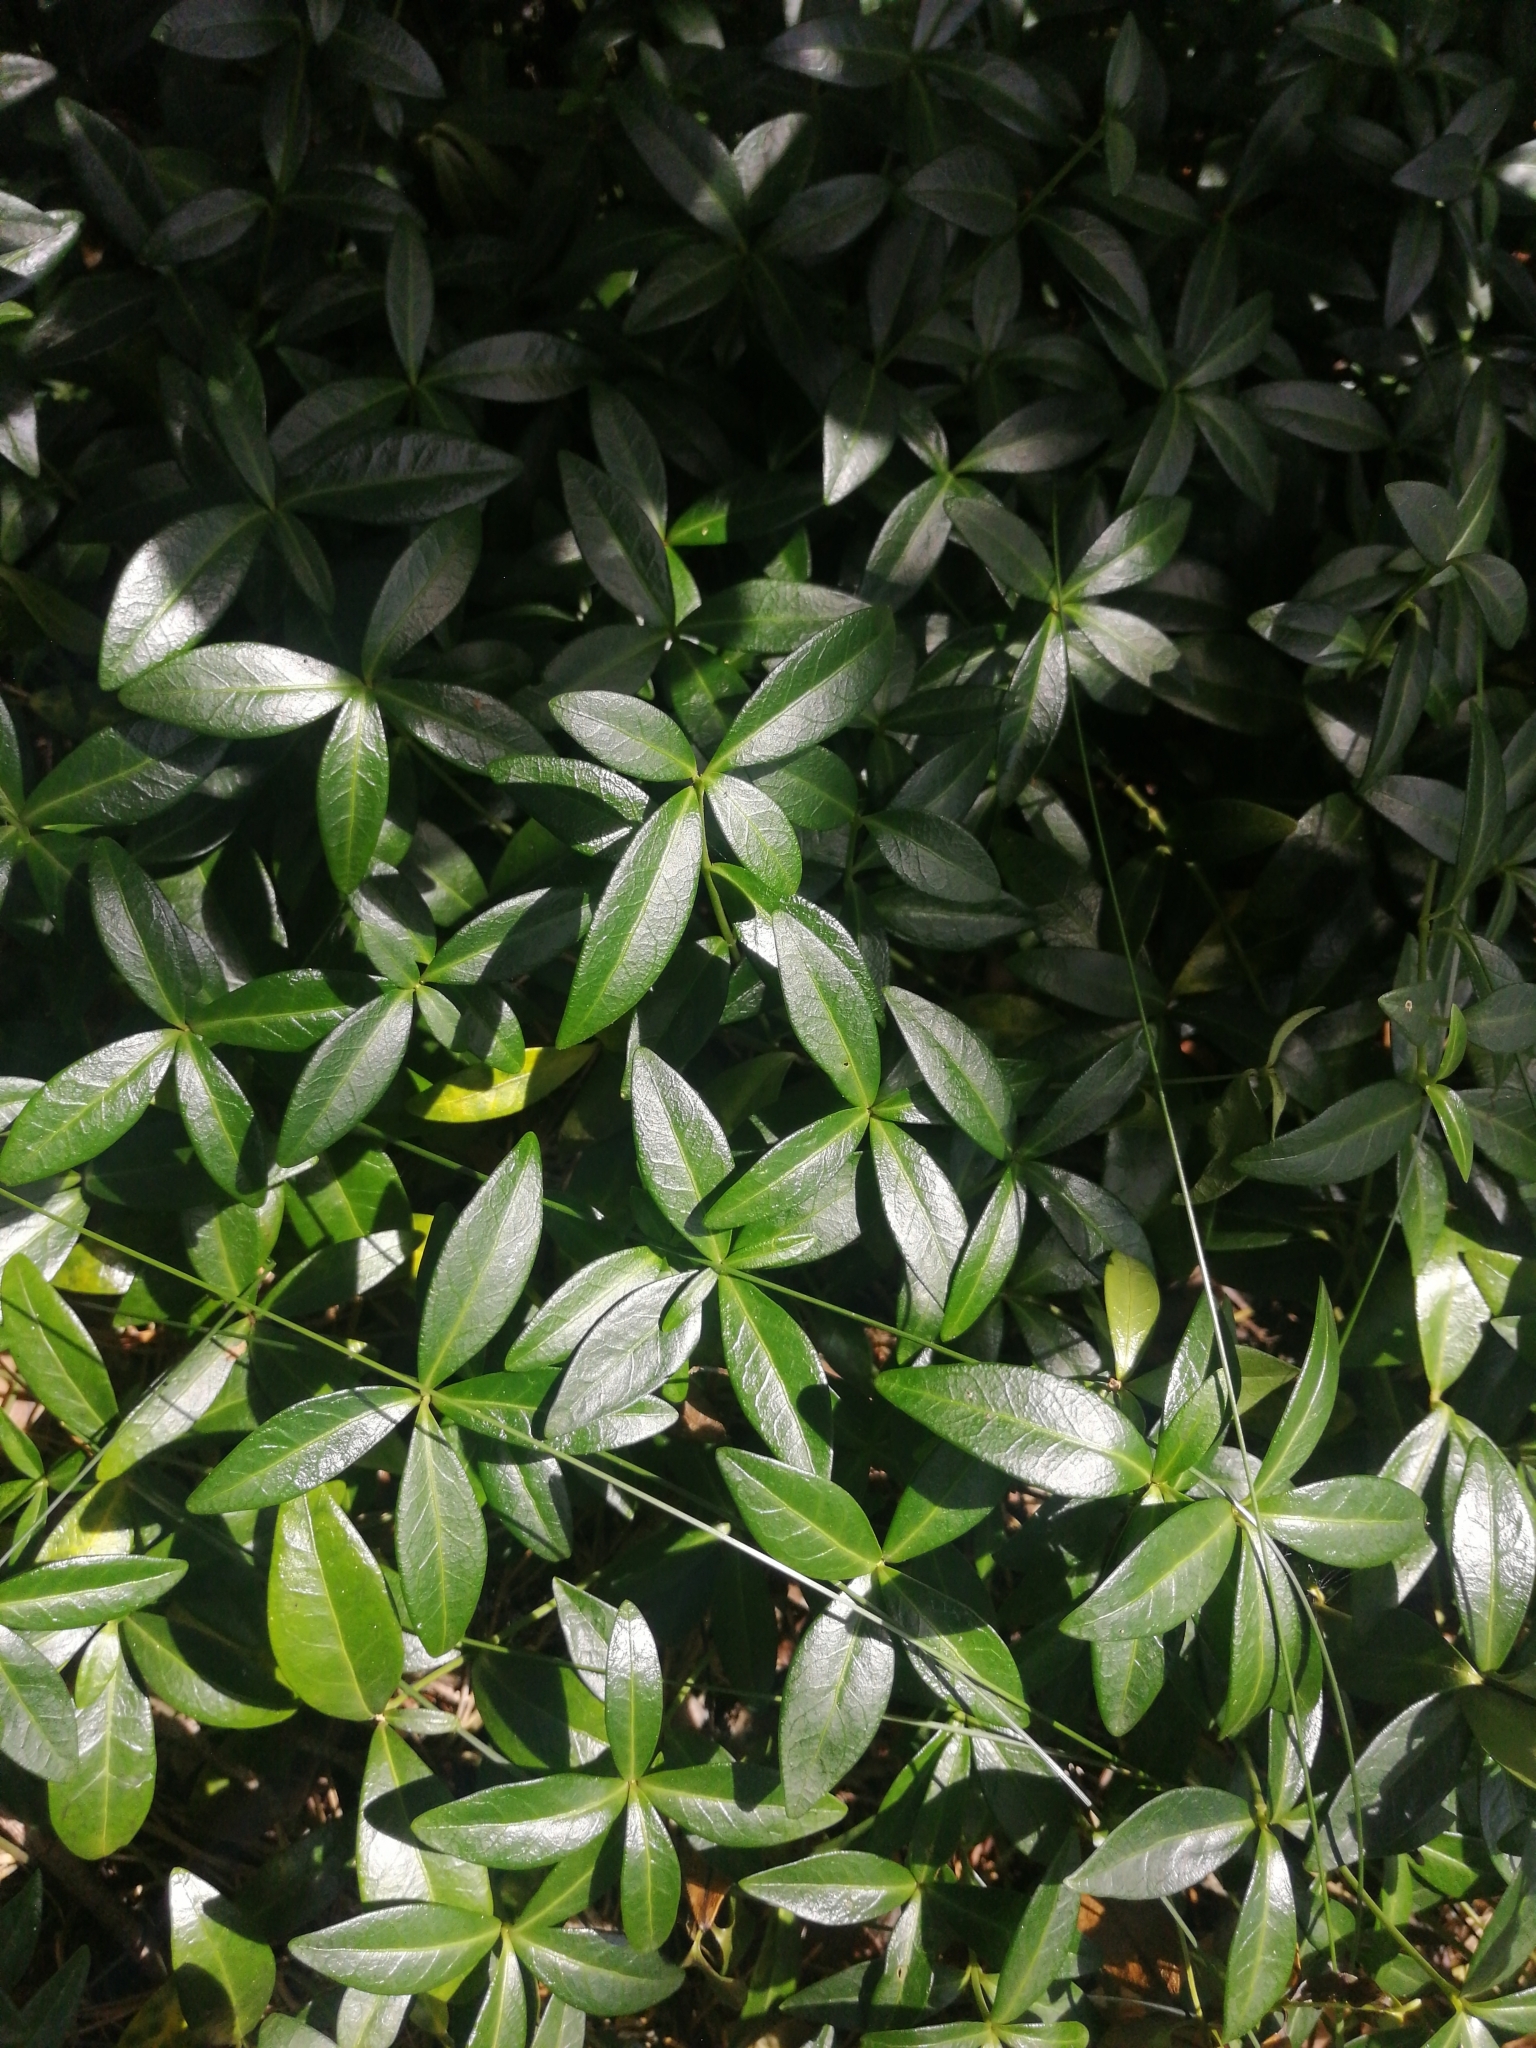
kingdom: Plantae
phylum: Tracheophyta
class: Magnoliopsida
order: Gentianales
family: Apocynaceae
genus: Vinca
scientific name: Vinca minor
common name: Lesser periwinkle
